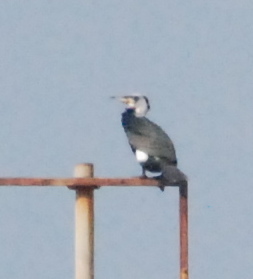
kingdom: Animalia
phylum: Chordata
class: Aves
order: Suliformes
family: Phalacrocoracidae
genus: Phalacrocorax
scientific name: Phalacrocorax carbo
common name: Great cormorant
